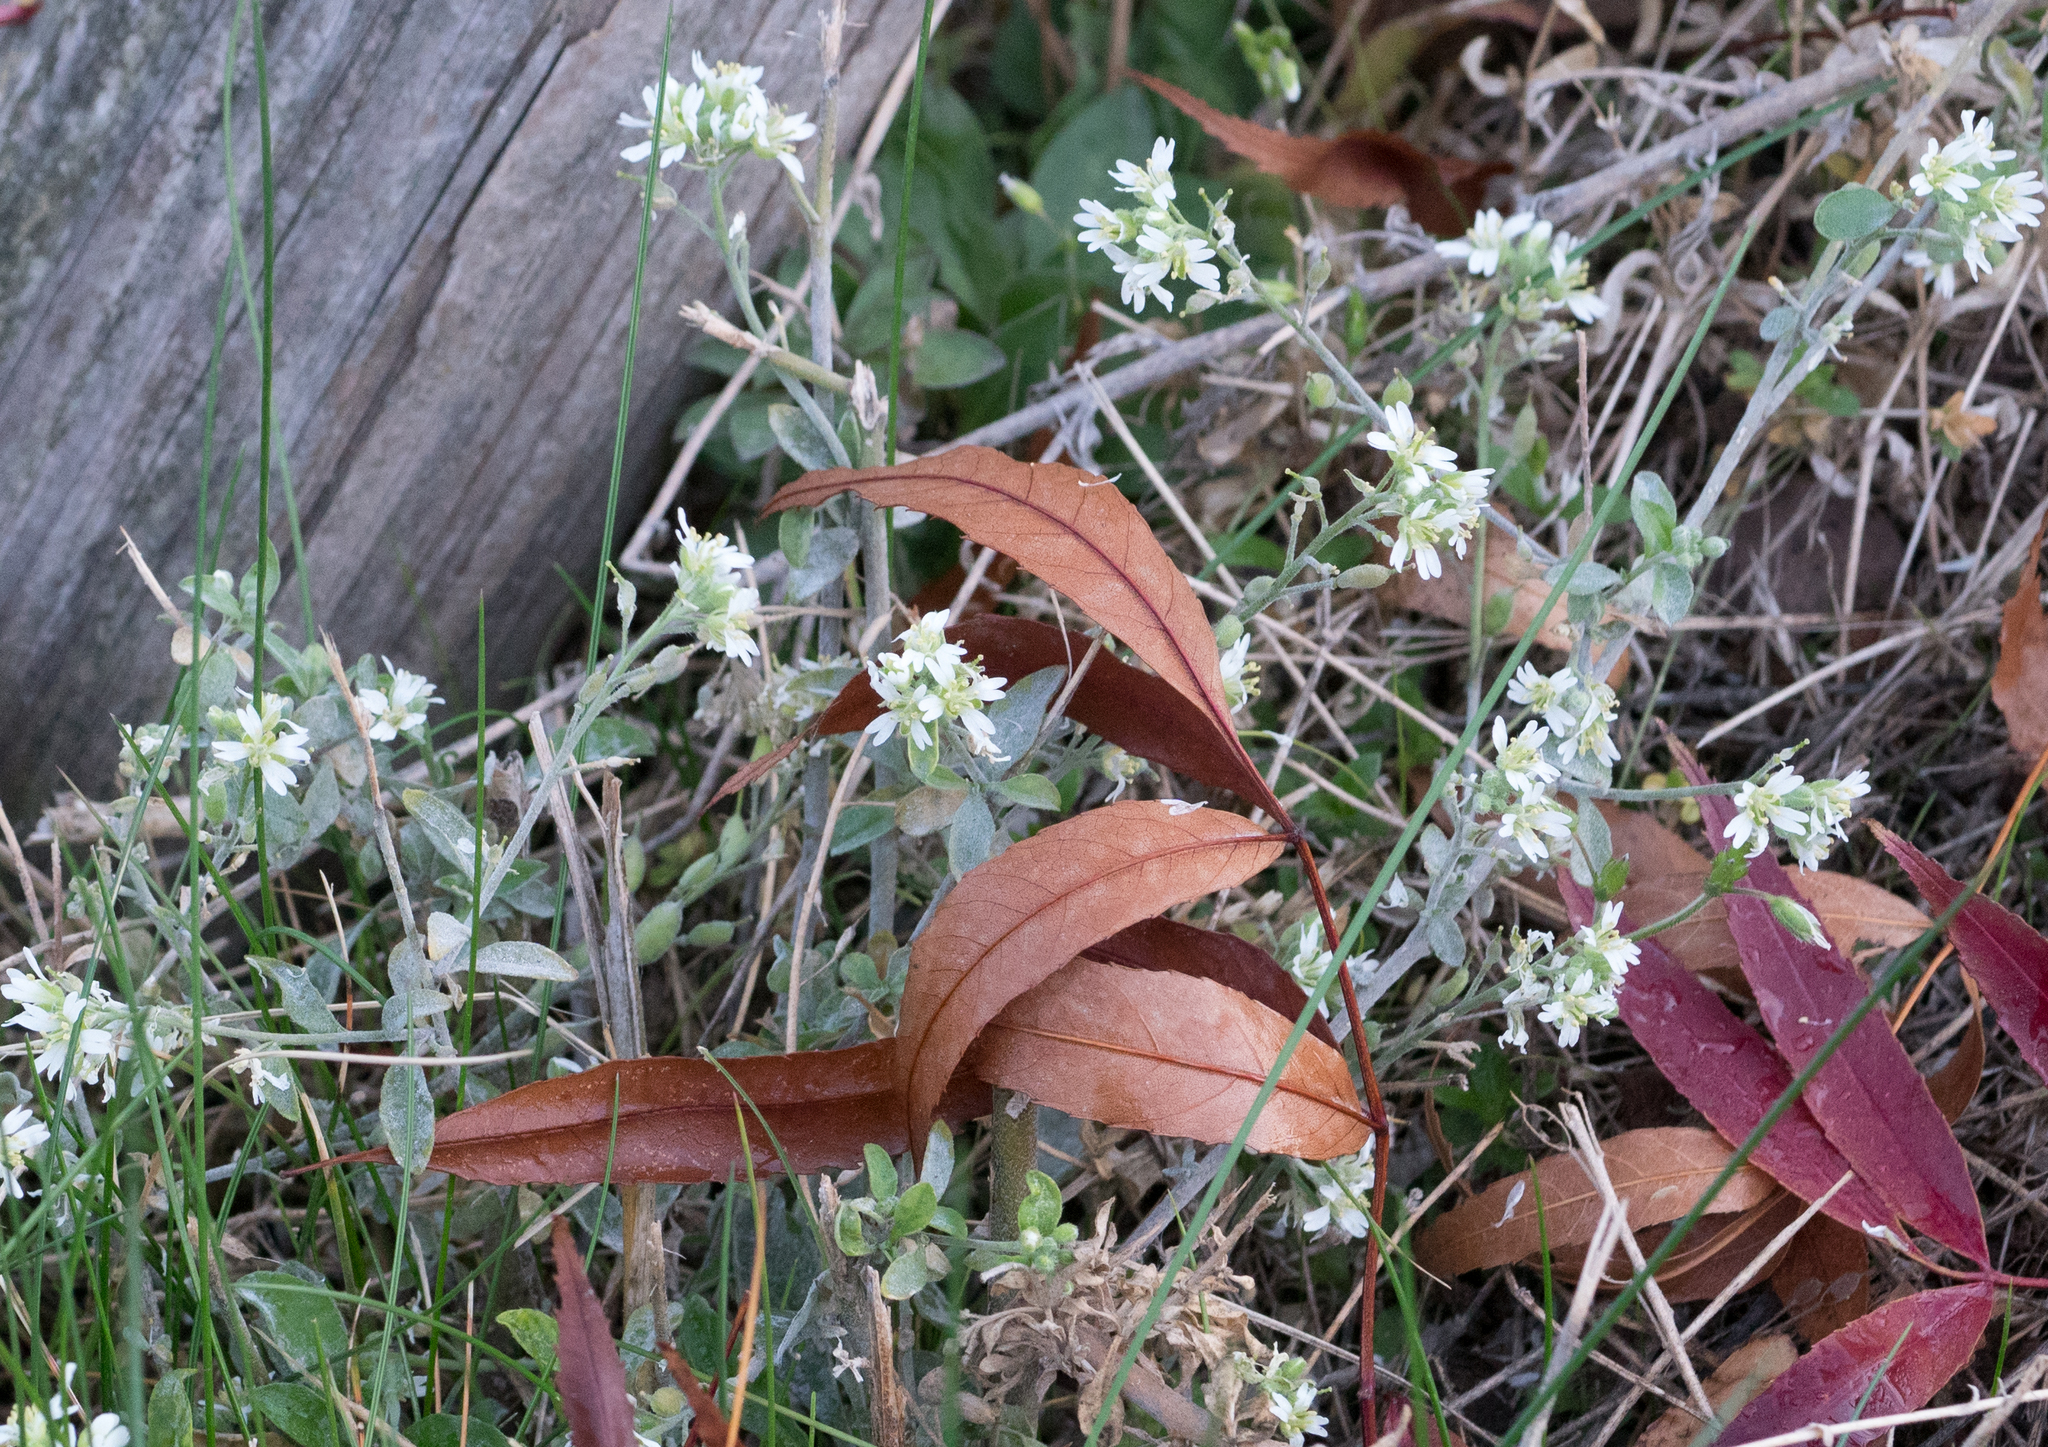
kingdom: Plantae
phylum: Tracheophyta
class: Magnoliopsida
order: Brassicales
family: Brassicaceae
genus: Berteroa
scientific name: Berteroa incana
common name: Hoary alison
